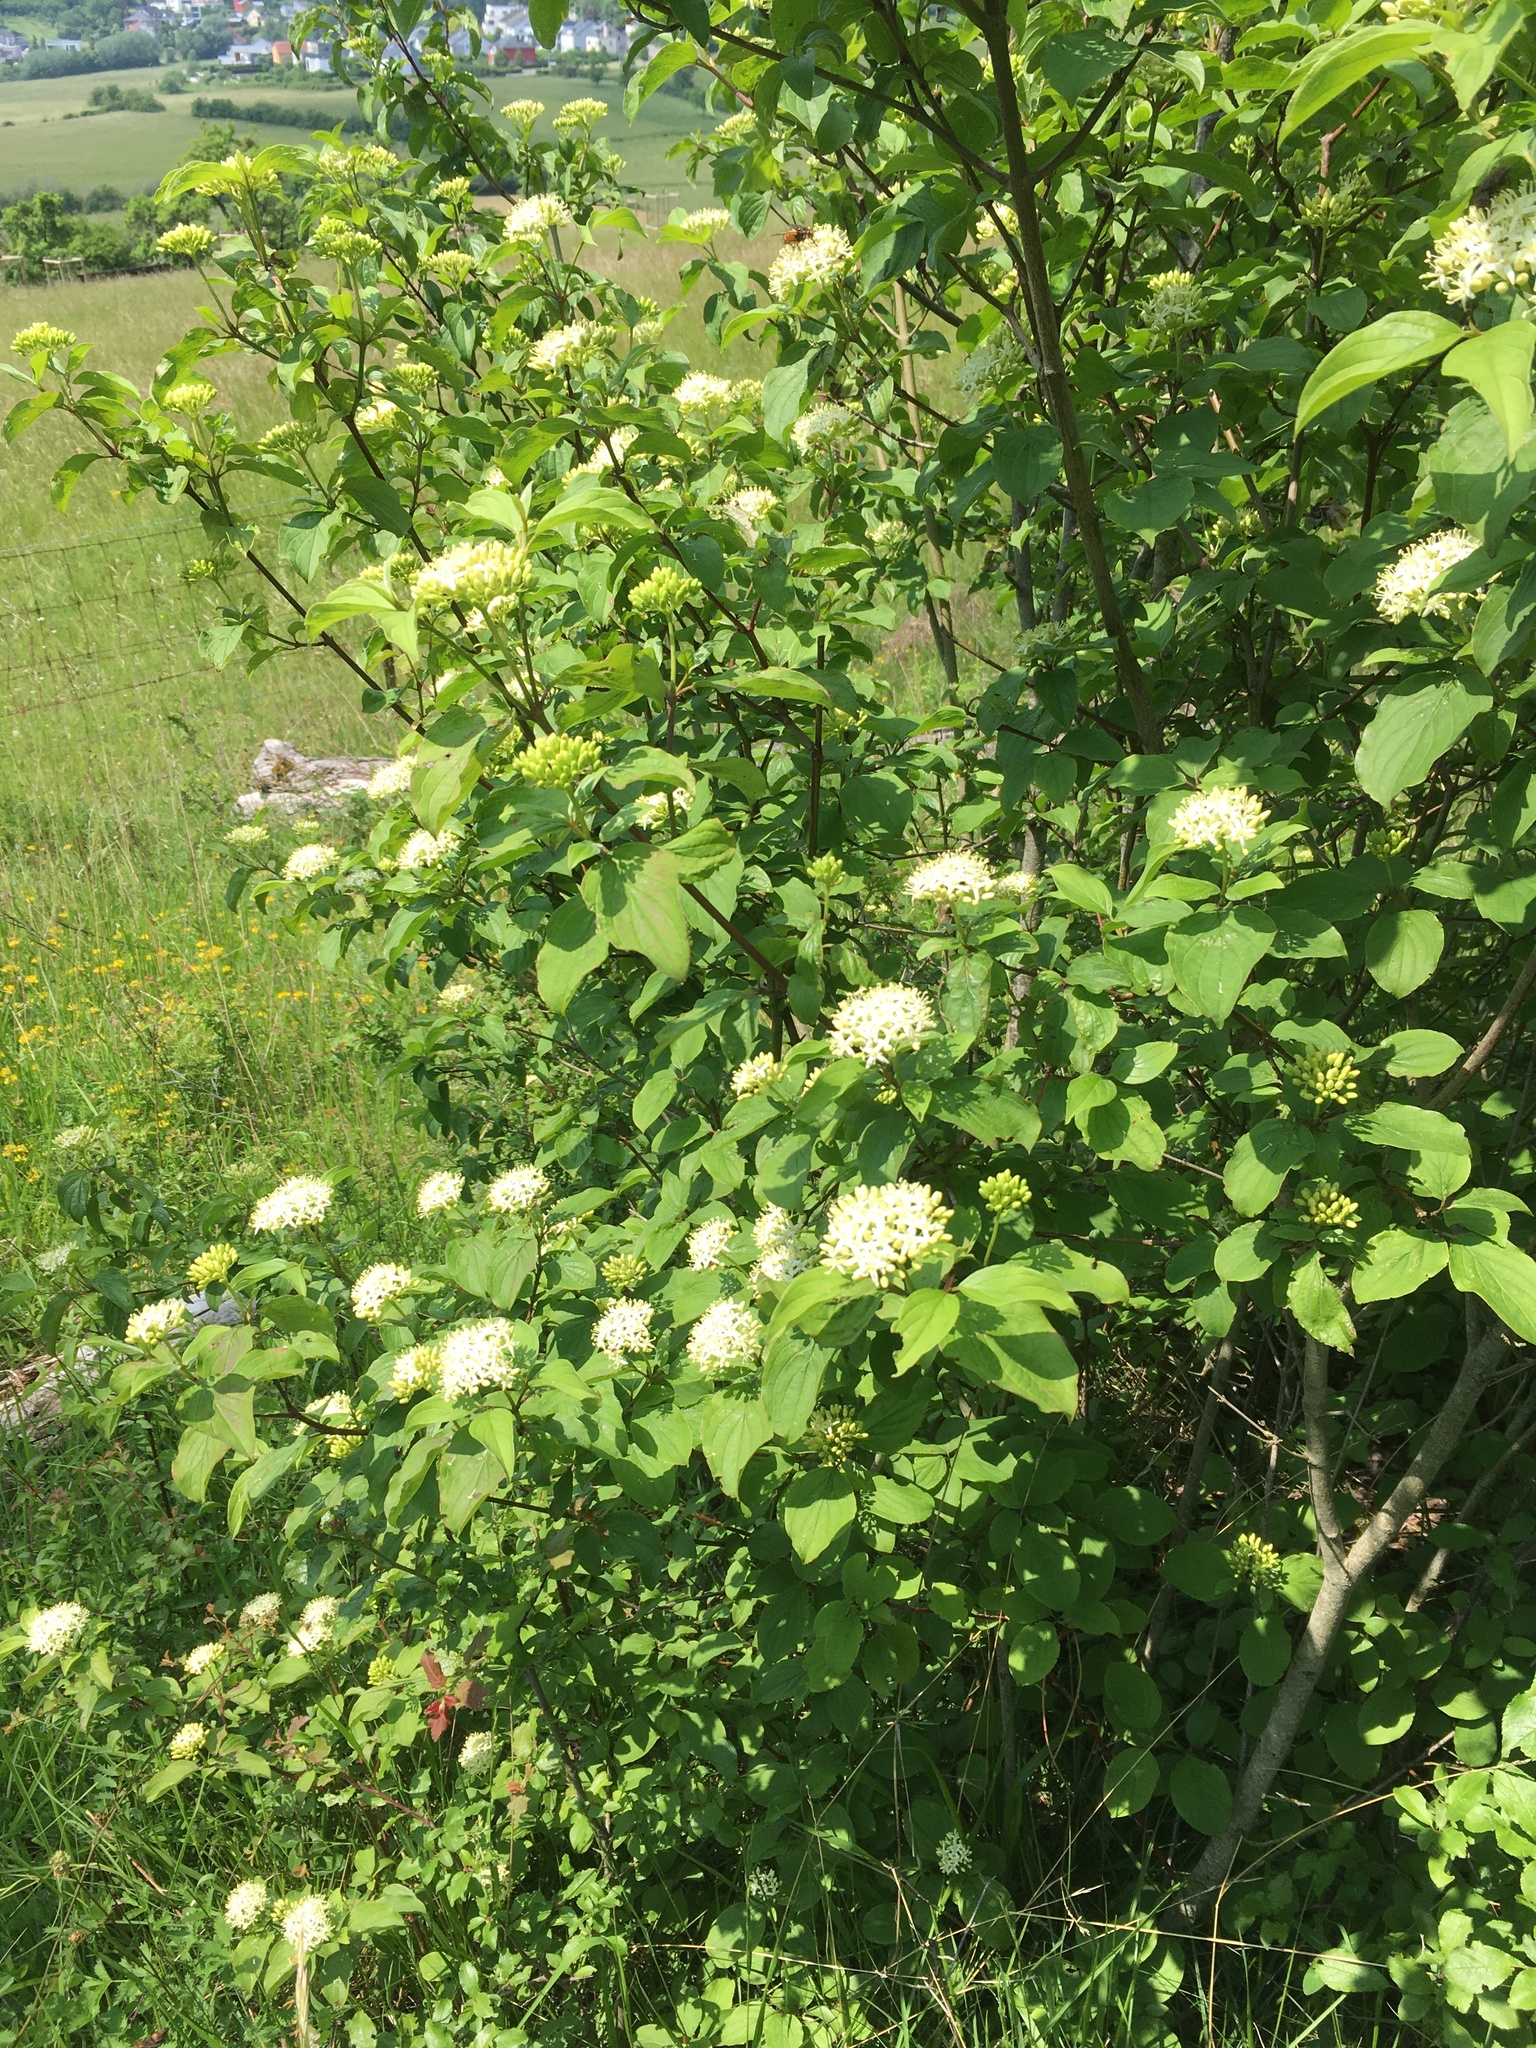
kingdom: Plantae
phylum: Tracheophyta
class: Magnoliopsida
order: Cornales
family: Cornaceae
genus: Cornus
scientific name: Cornus sanguinea
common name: Dogwood
